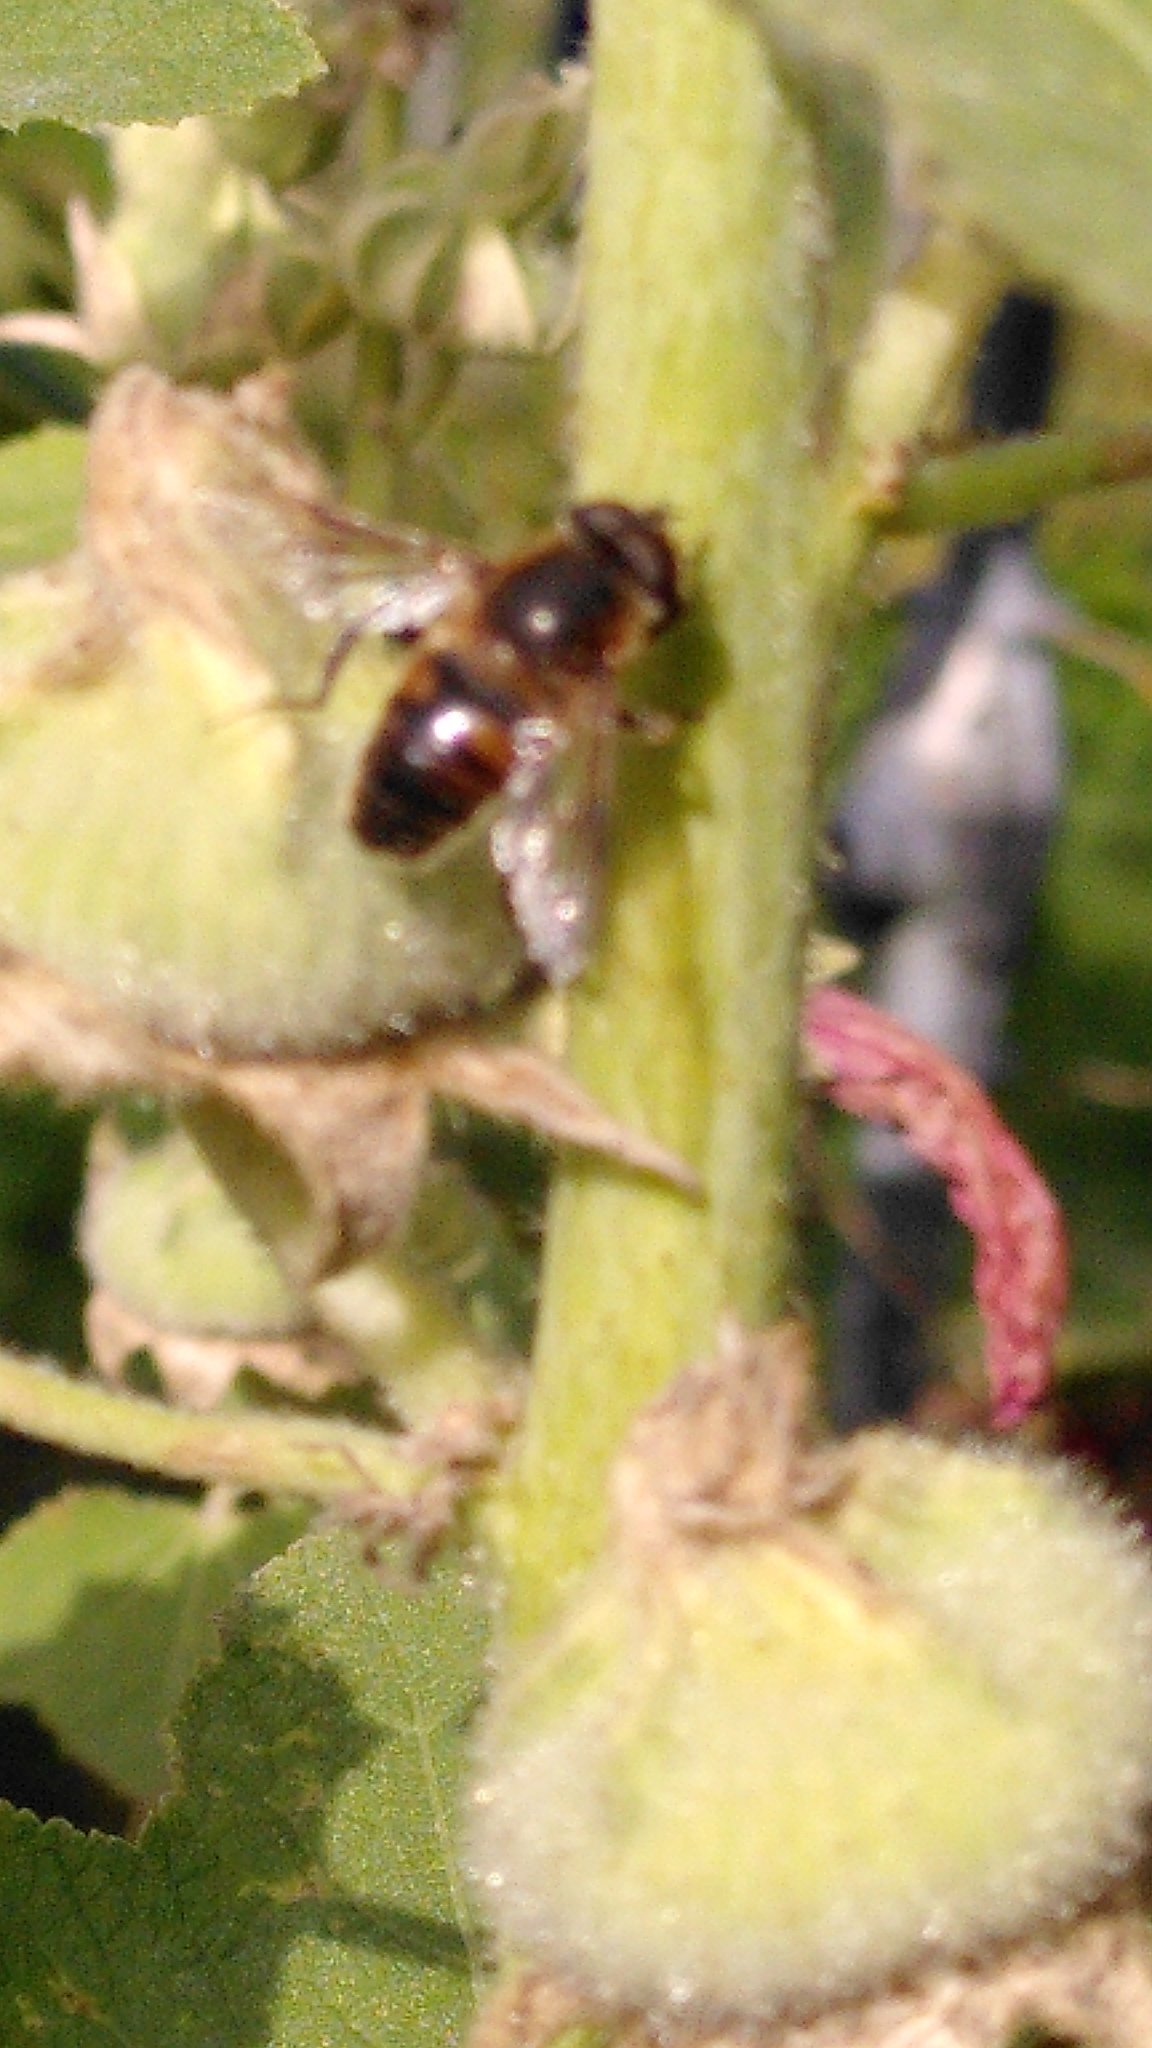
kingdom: Animalia
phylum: Arthropoda
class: Insecta
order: Diptera
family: Syrphidae
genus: Eristalis
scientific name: Eristalis tenax
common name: Drone fly
